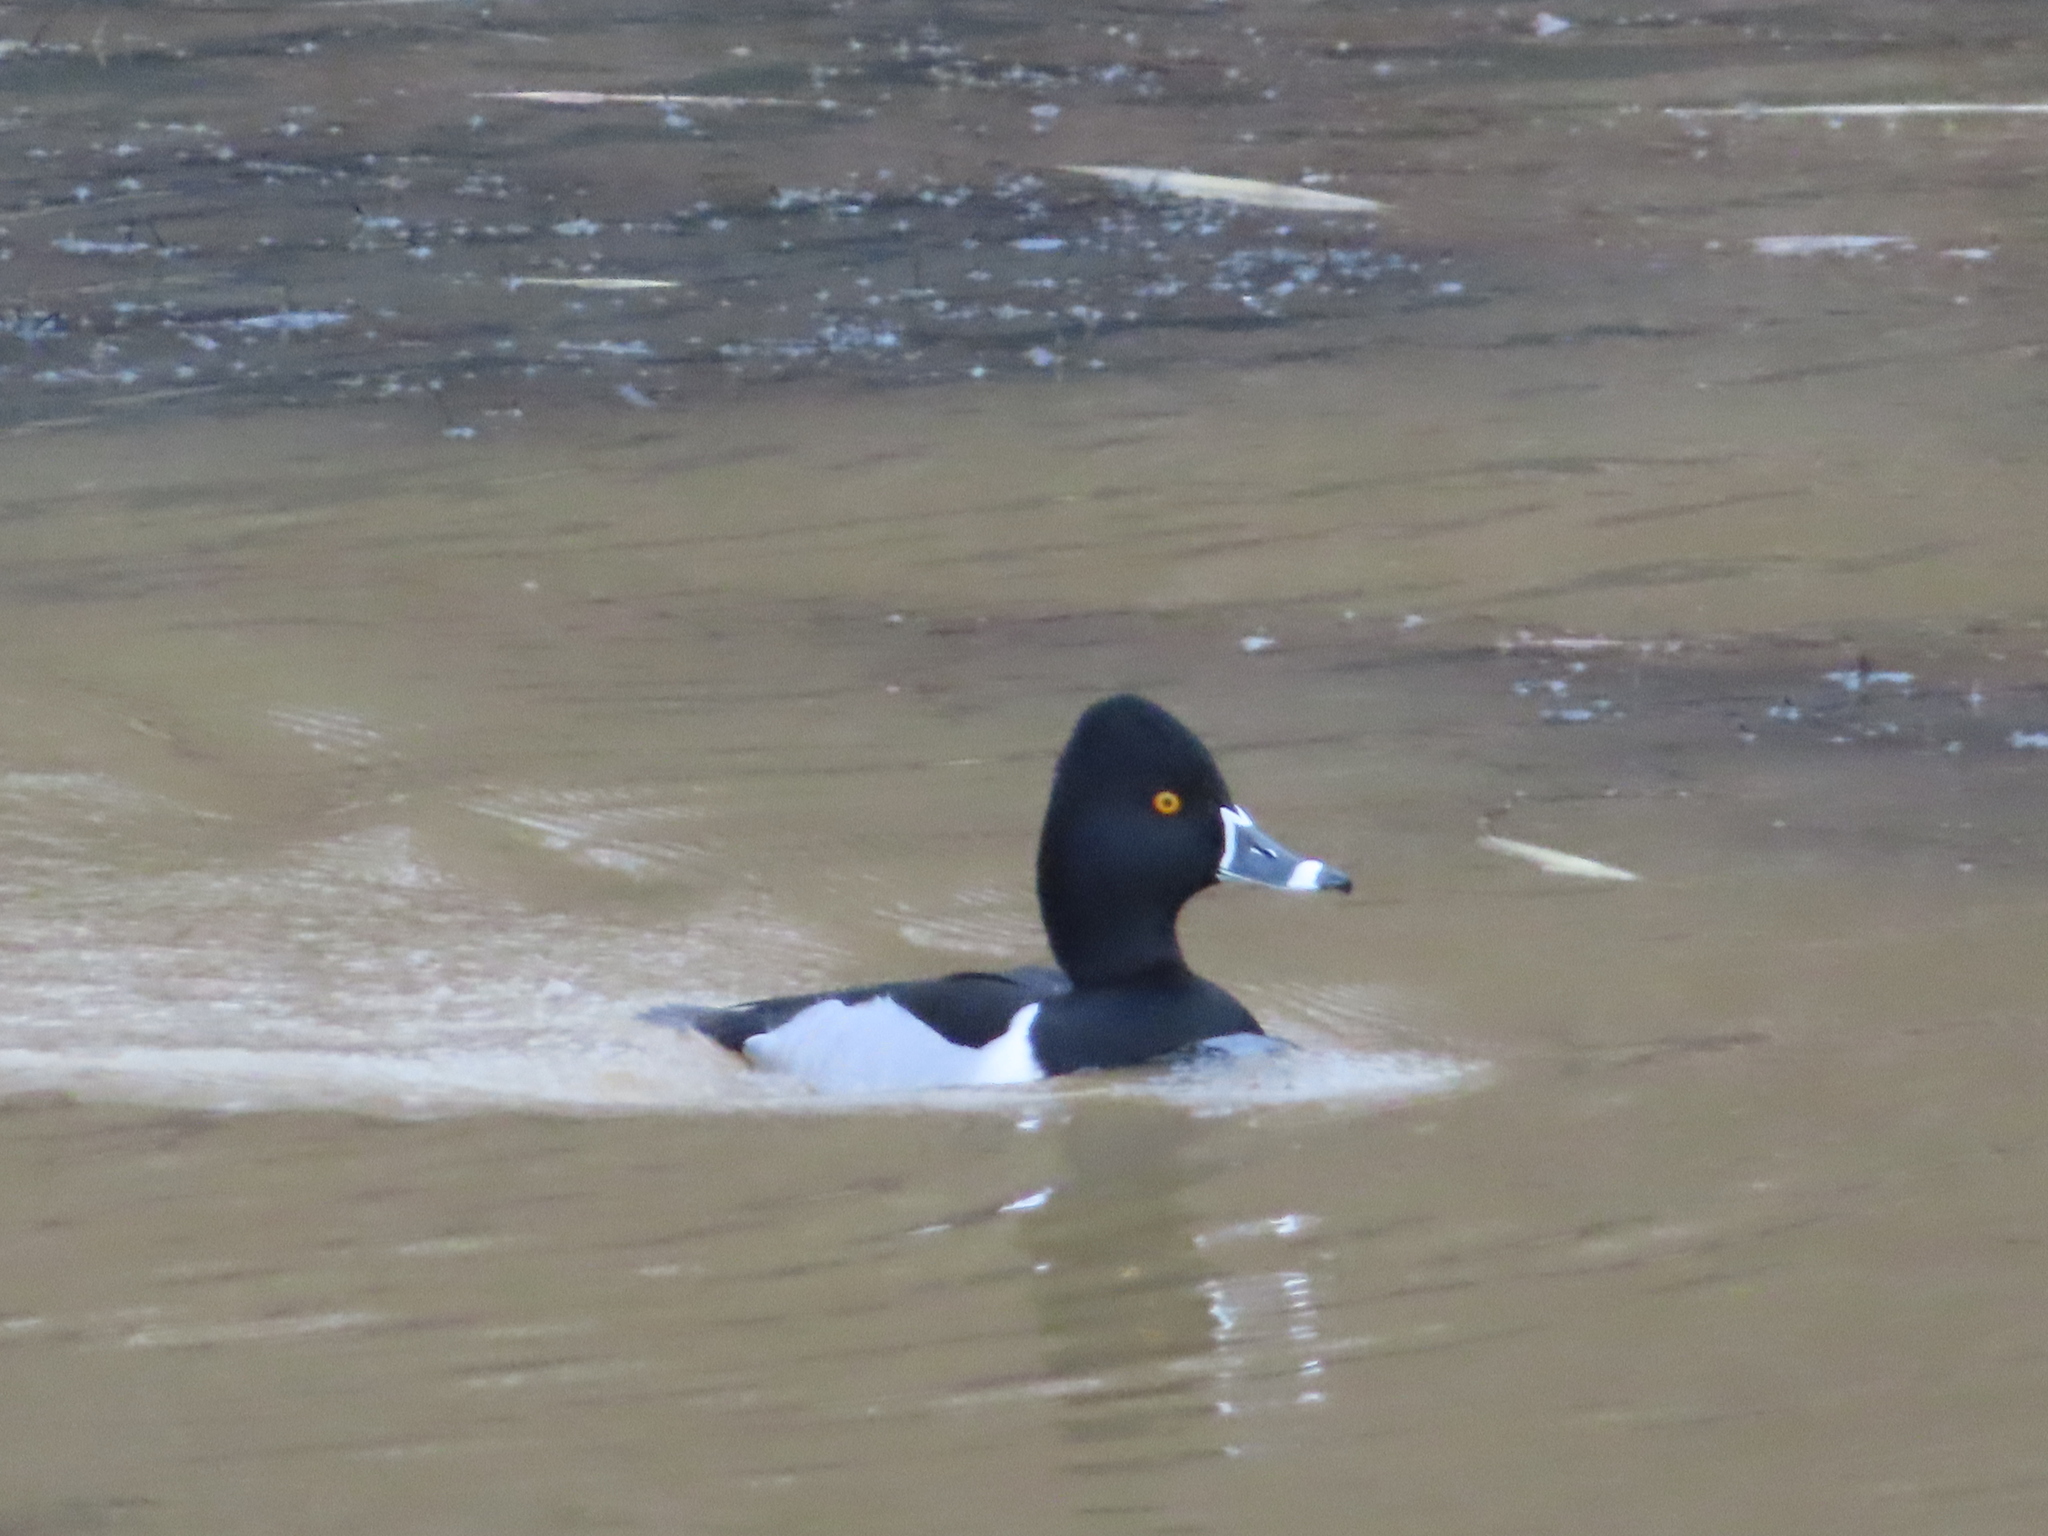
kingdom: Animalia
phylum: Chordata
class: Aves
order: Anseriformes
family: Anatidae
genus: Aythya
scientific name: Aythya collaris
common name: Ring-necked duck
